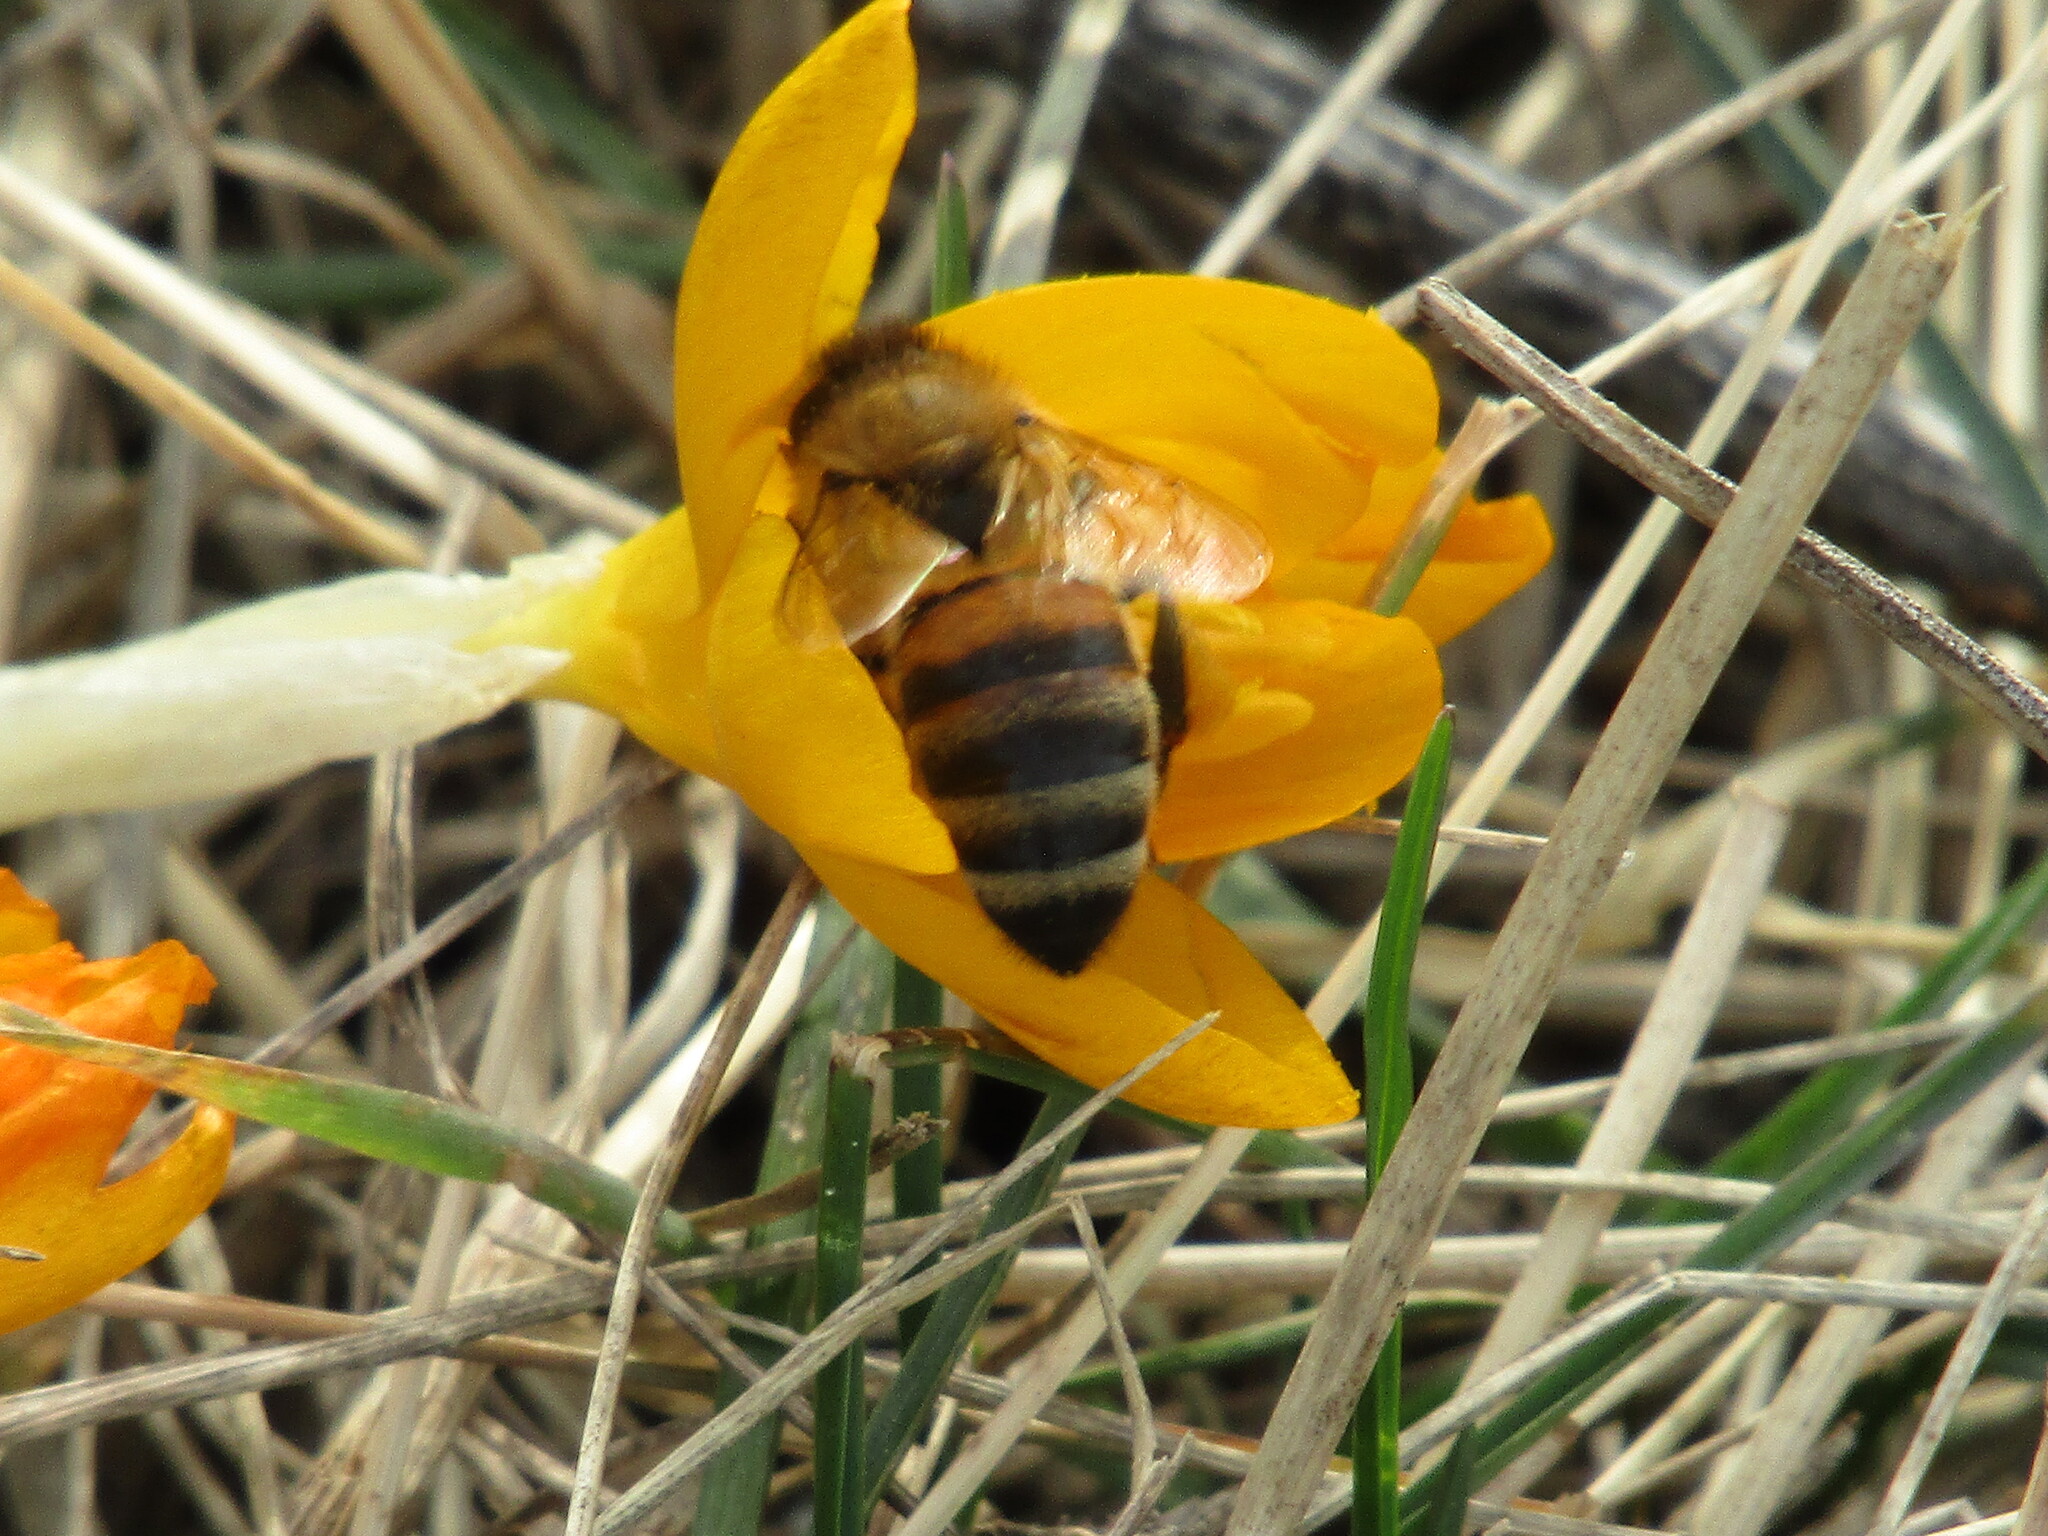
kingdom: Animalia
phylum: Arthropoda
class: Insecta
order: Hymenoptera
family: Apidae
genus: Apis
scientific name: Apis mellifera
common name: Honey bee
